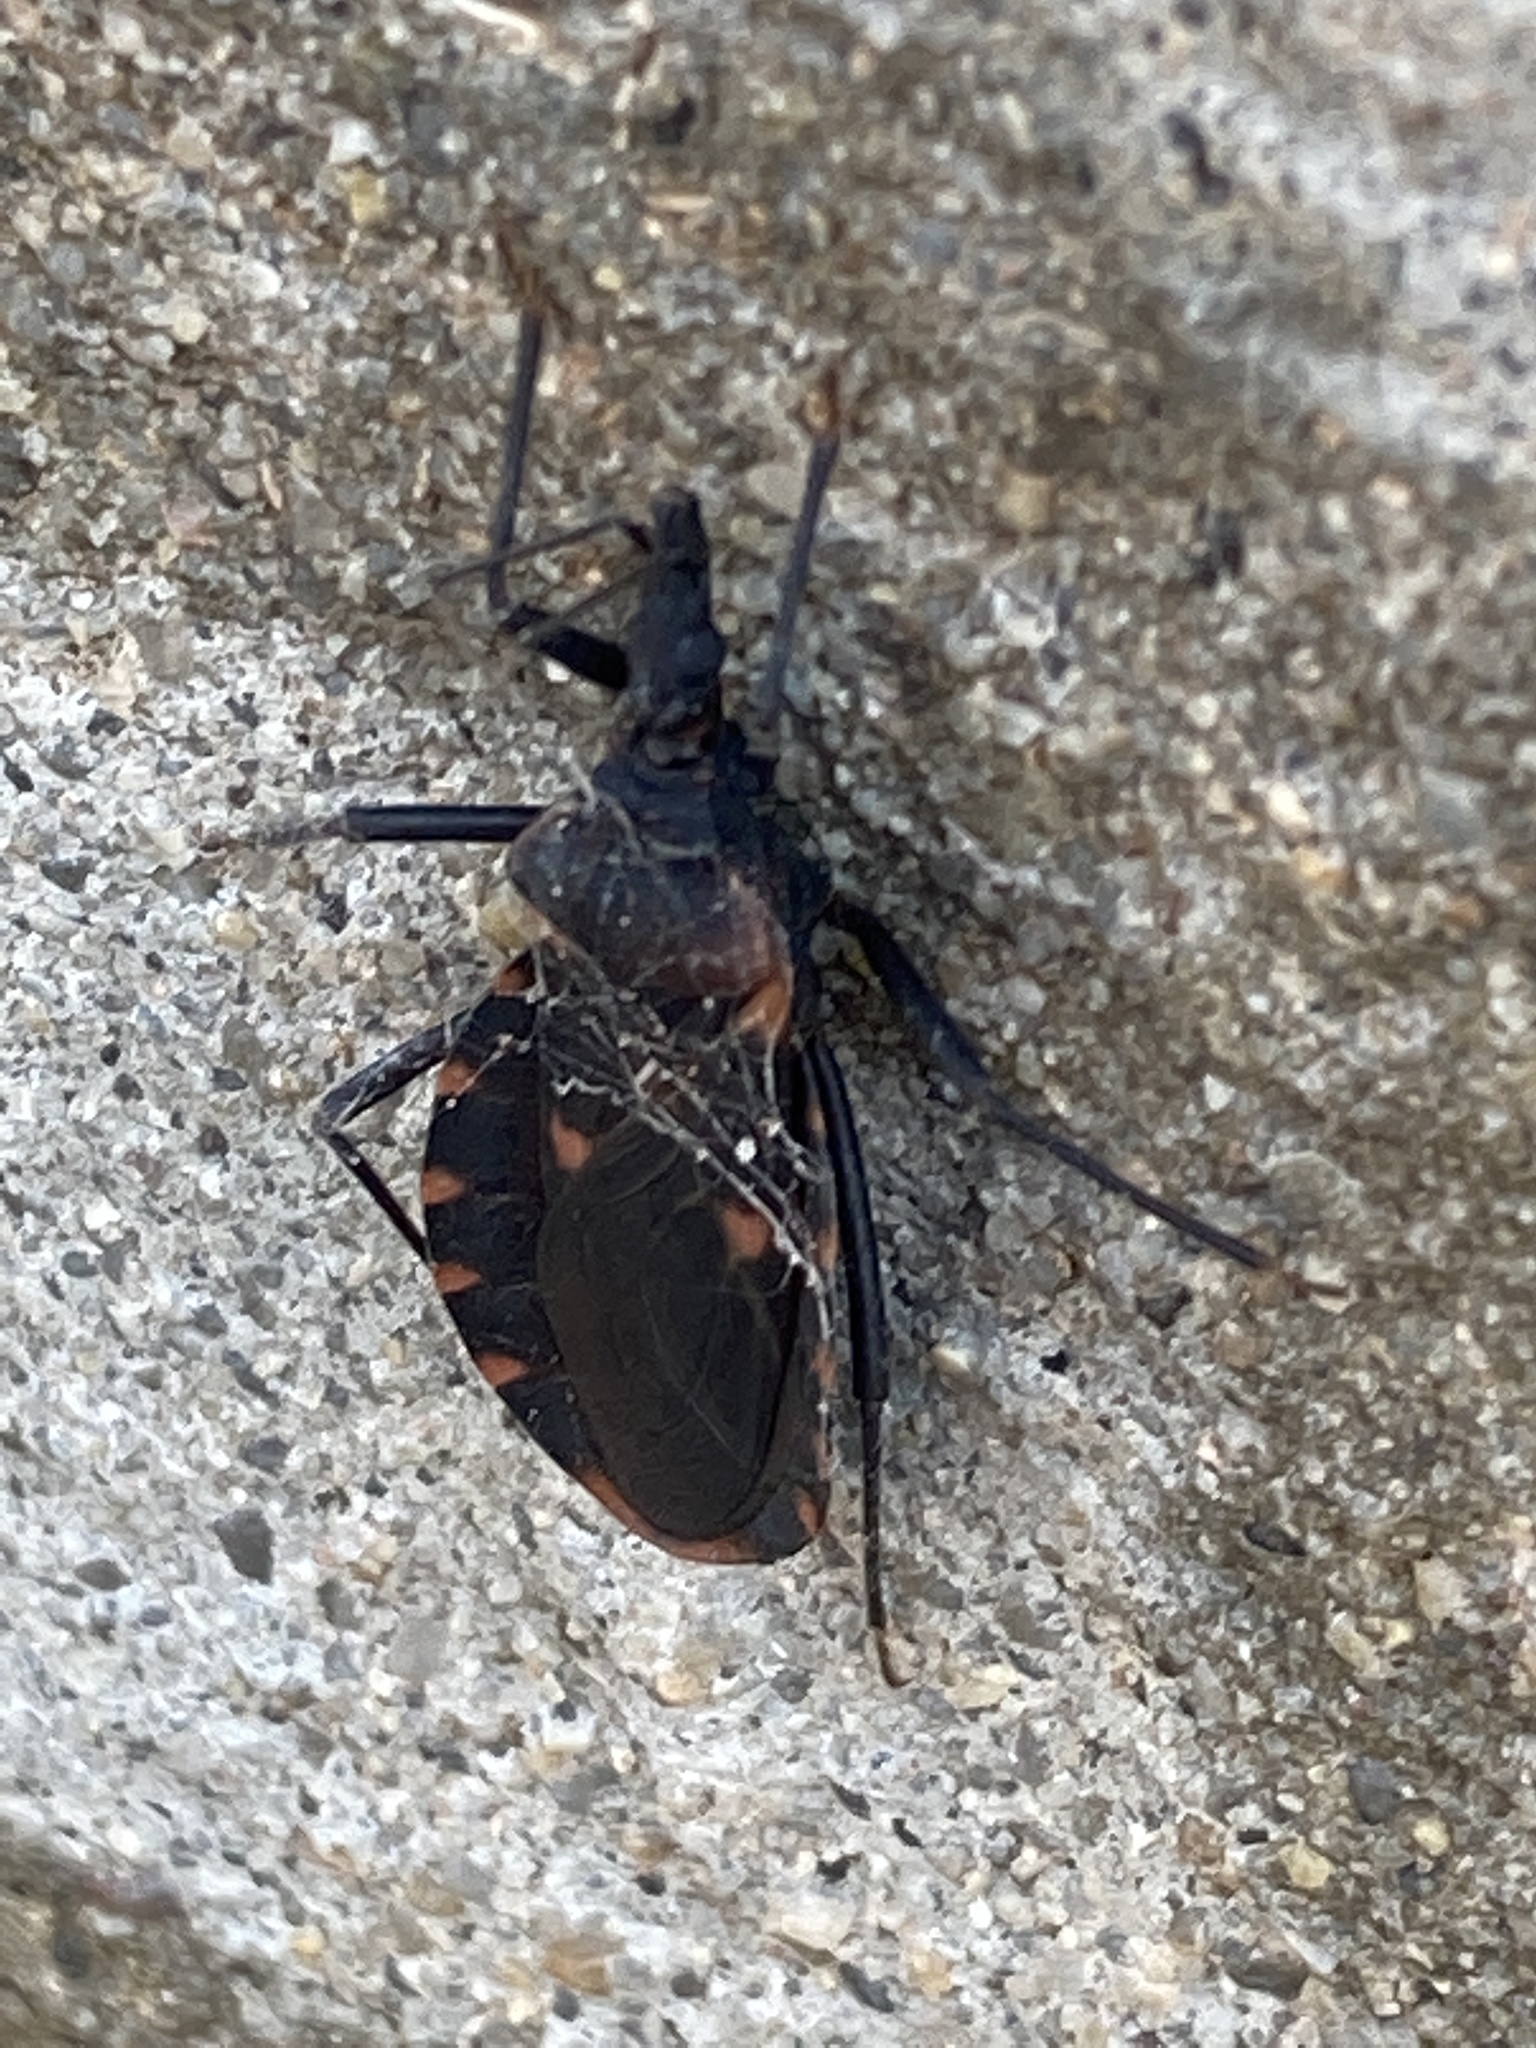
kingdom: Animalia
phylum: Arthropoda
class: Insecta
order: Hemiptera
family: Reduviidae
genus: Triatoma
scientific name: Triatoma sanguisuga
